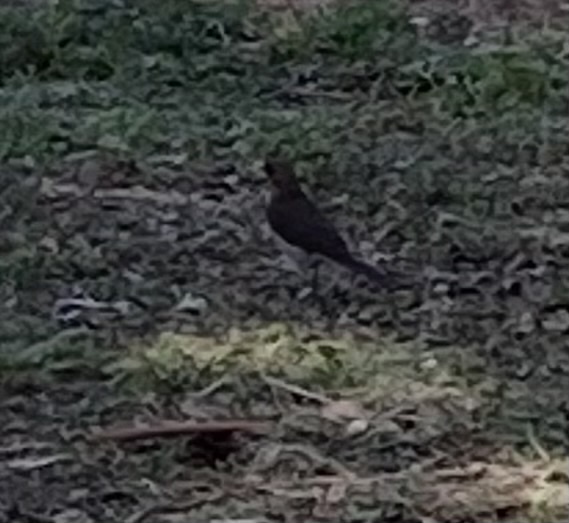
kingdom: Animalia
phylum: Chordata
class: Aves
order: Passeriformes
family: Turdidae
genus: Turdus
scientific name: Turdus amaurochalinus
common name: Creamy-bellied thrush
